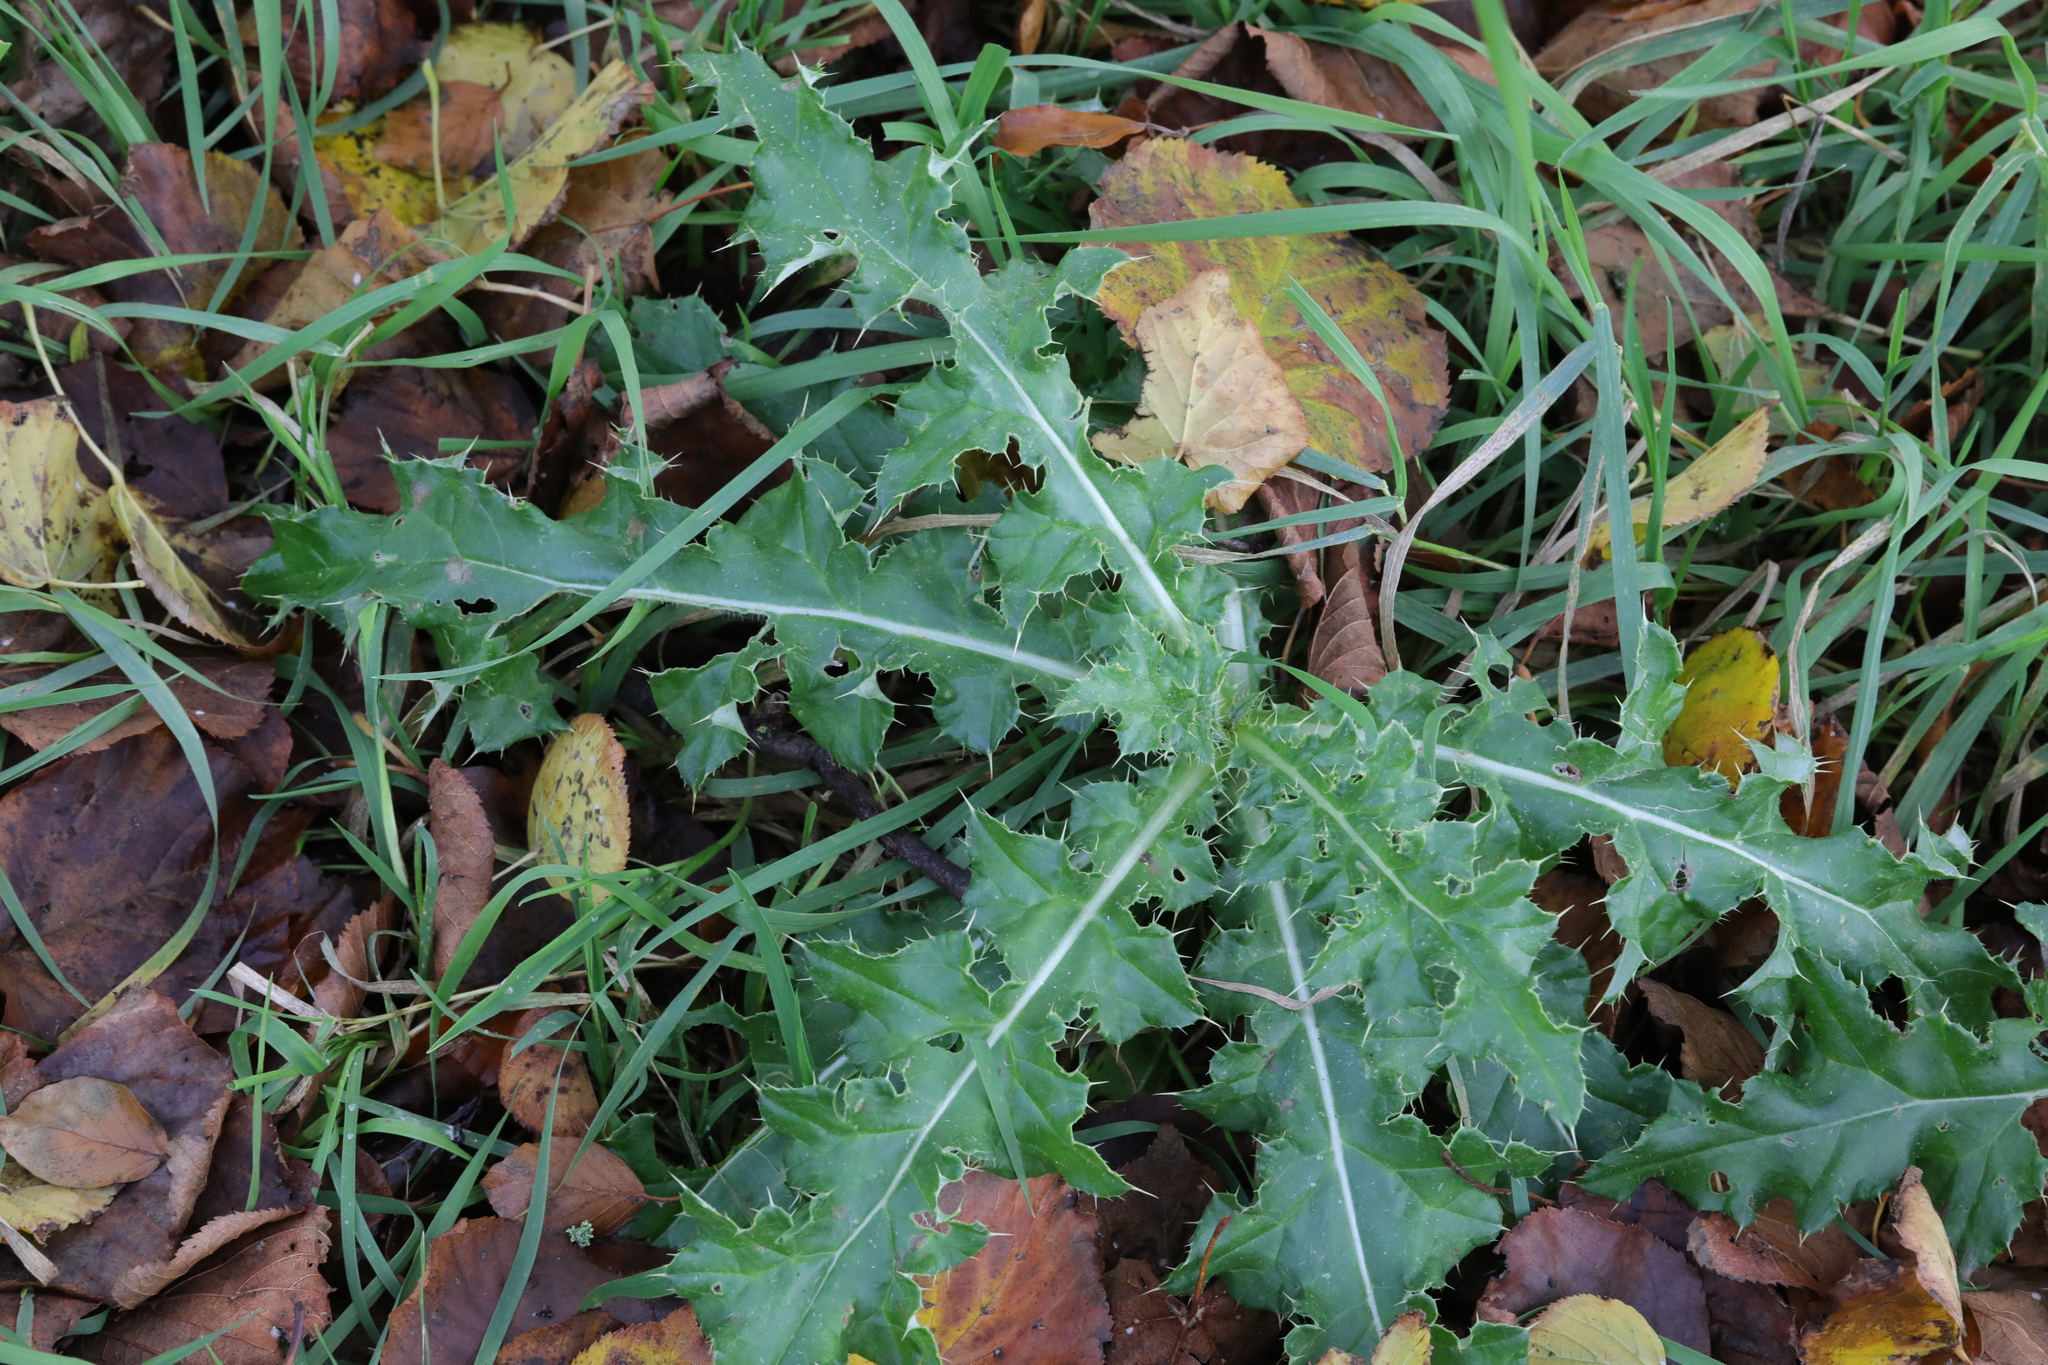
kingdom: Plantae
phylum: Tracheophyta
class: Magnoliopsida
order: Asterales
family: Asteraceae
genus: Cirsium
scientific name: Cirsium arvense
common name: Creeping thistle
